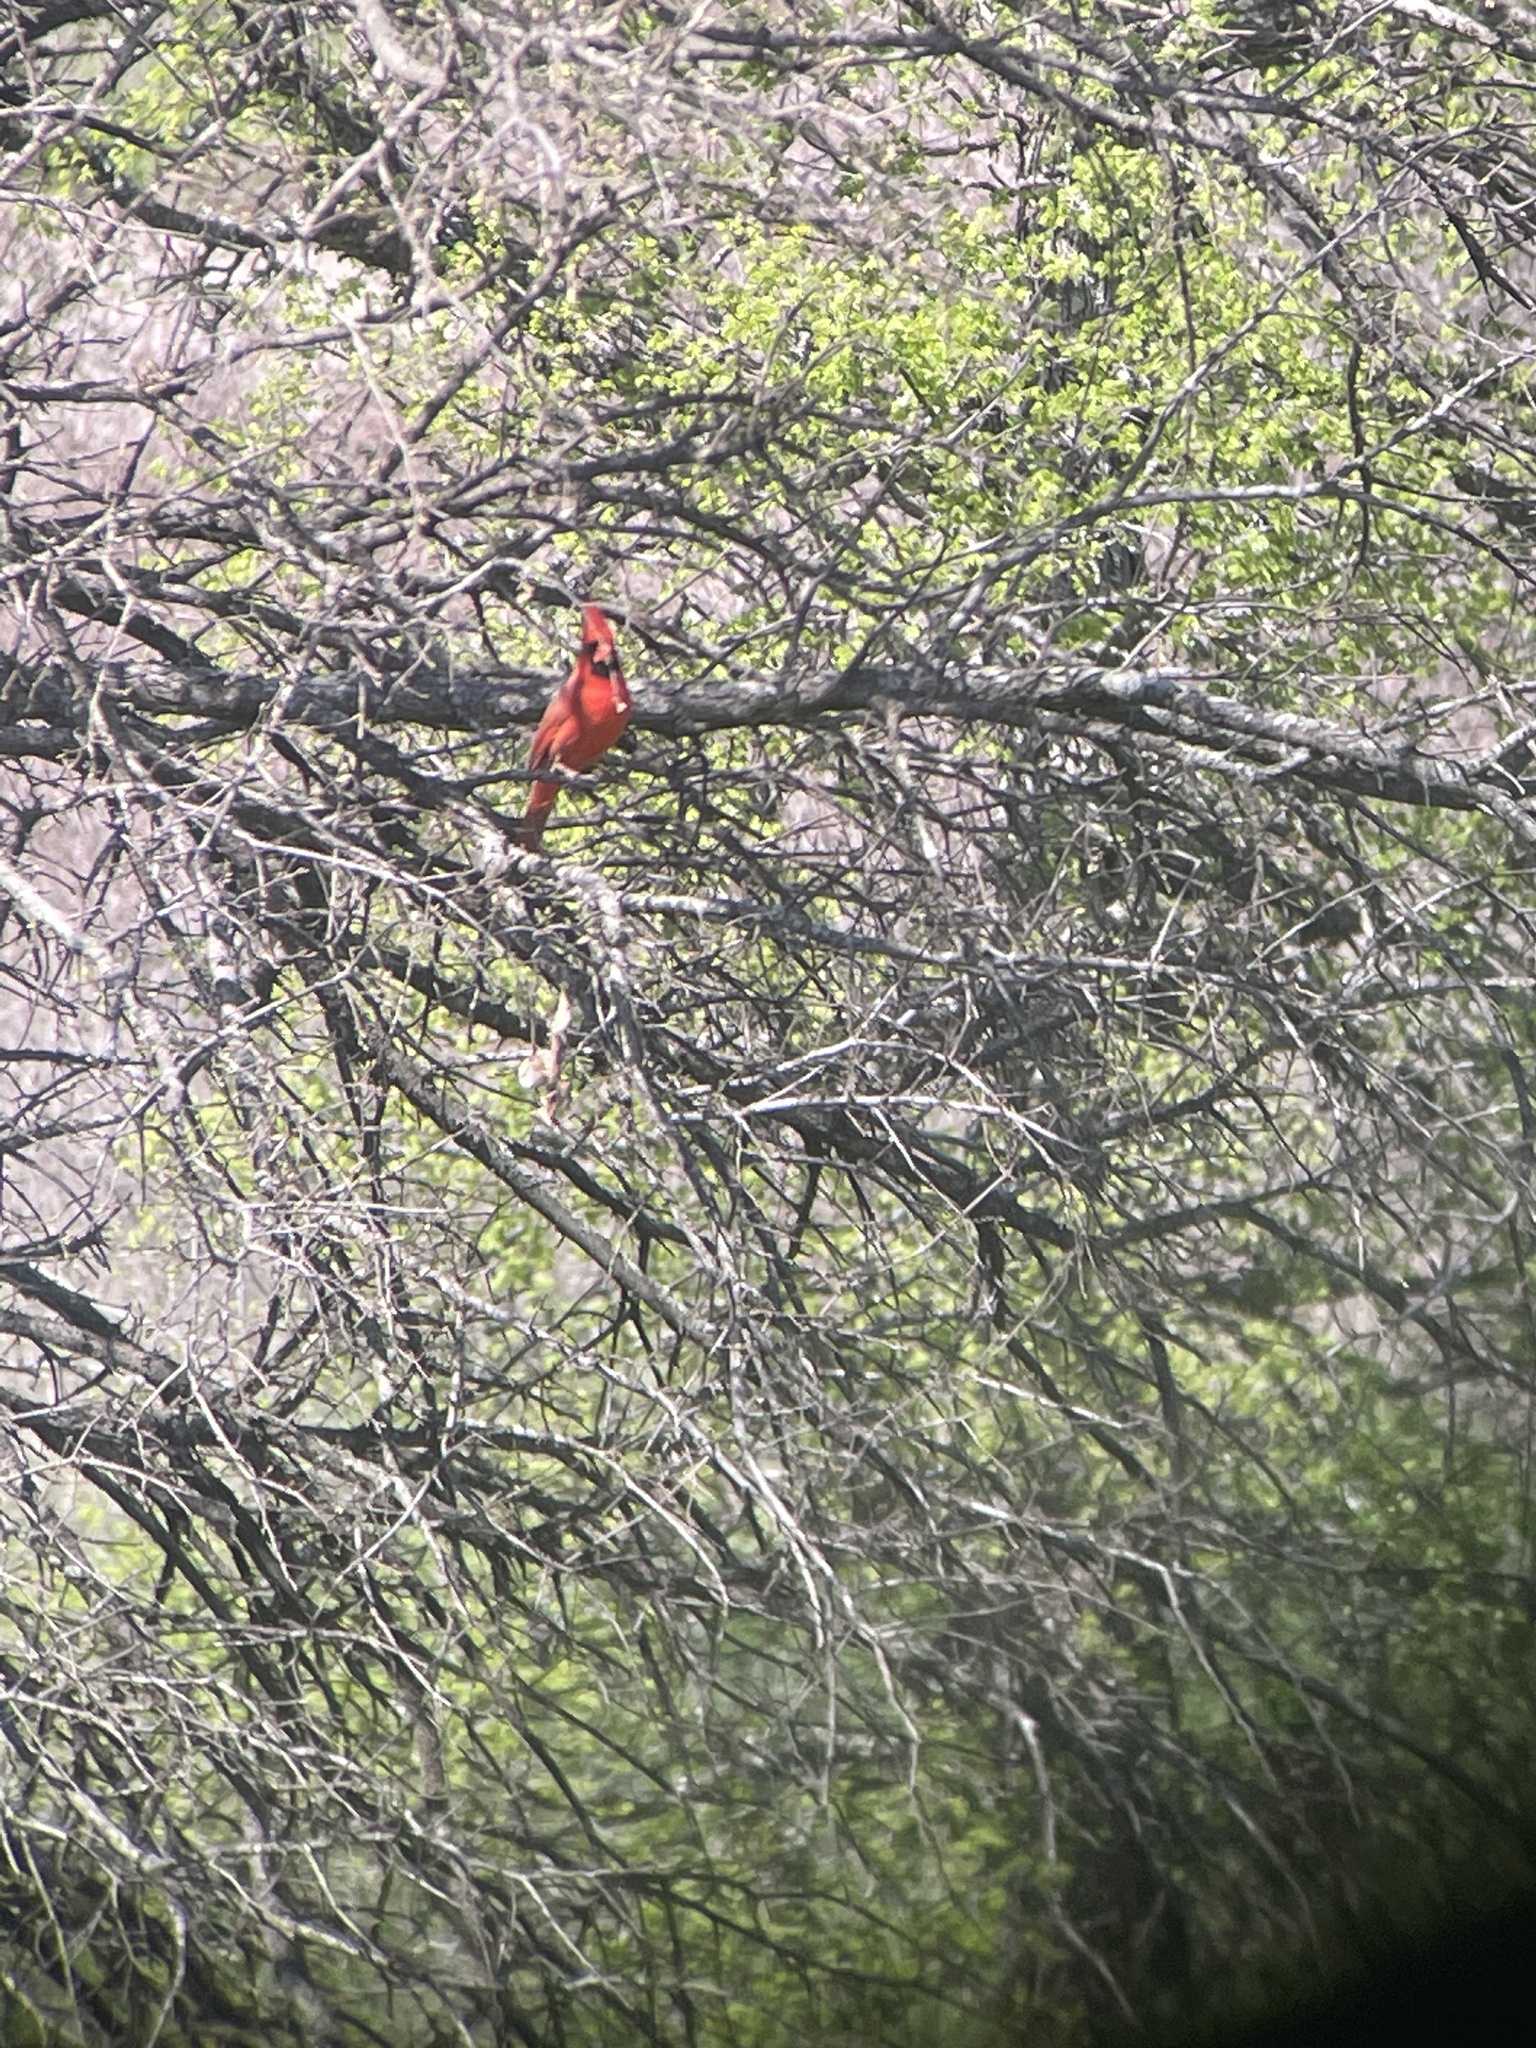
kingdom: Animalia
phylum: Chordata
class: Aves
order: Passeriformes
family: Cardinalidae
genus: Cardinalis
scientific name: Cardinalis cardinalis
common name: Northern cardinal
